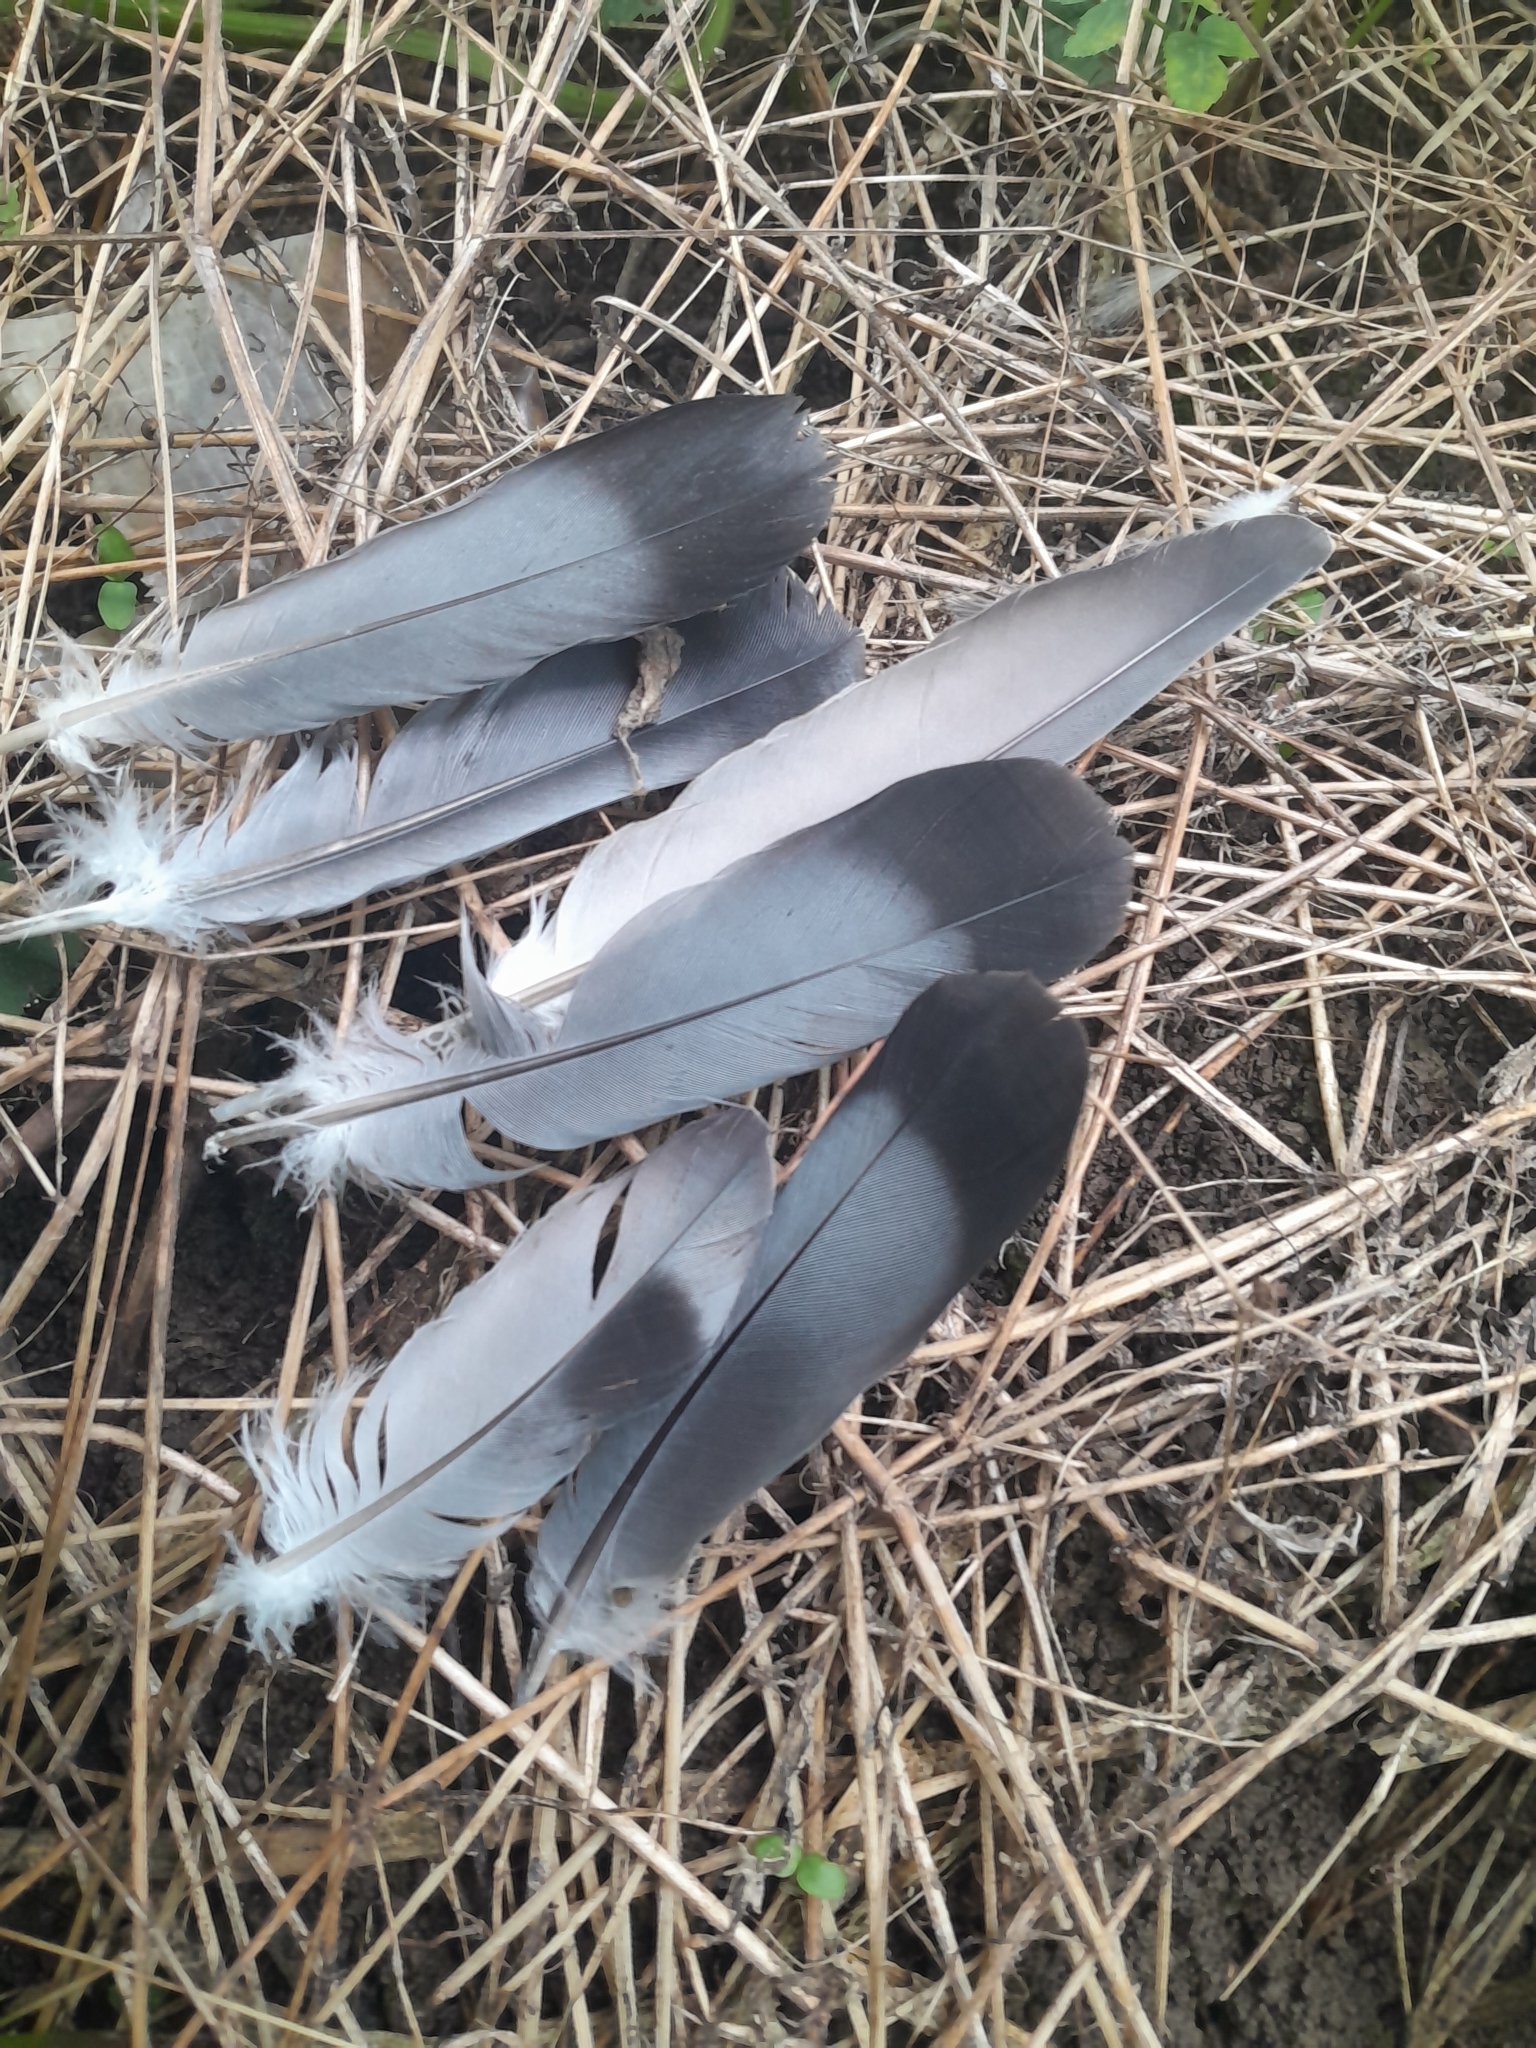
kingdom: Animalia
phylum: Chordata
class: Aves
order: Columbiformes
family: Columbidae
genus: Columba
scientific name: Columba palumbus
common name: Common wood pigeon
